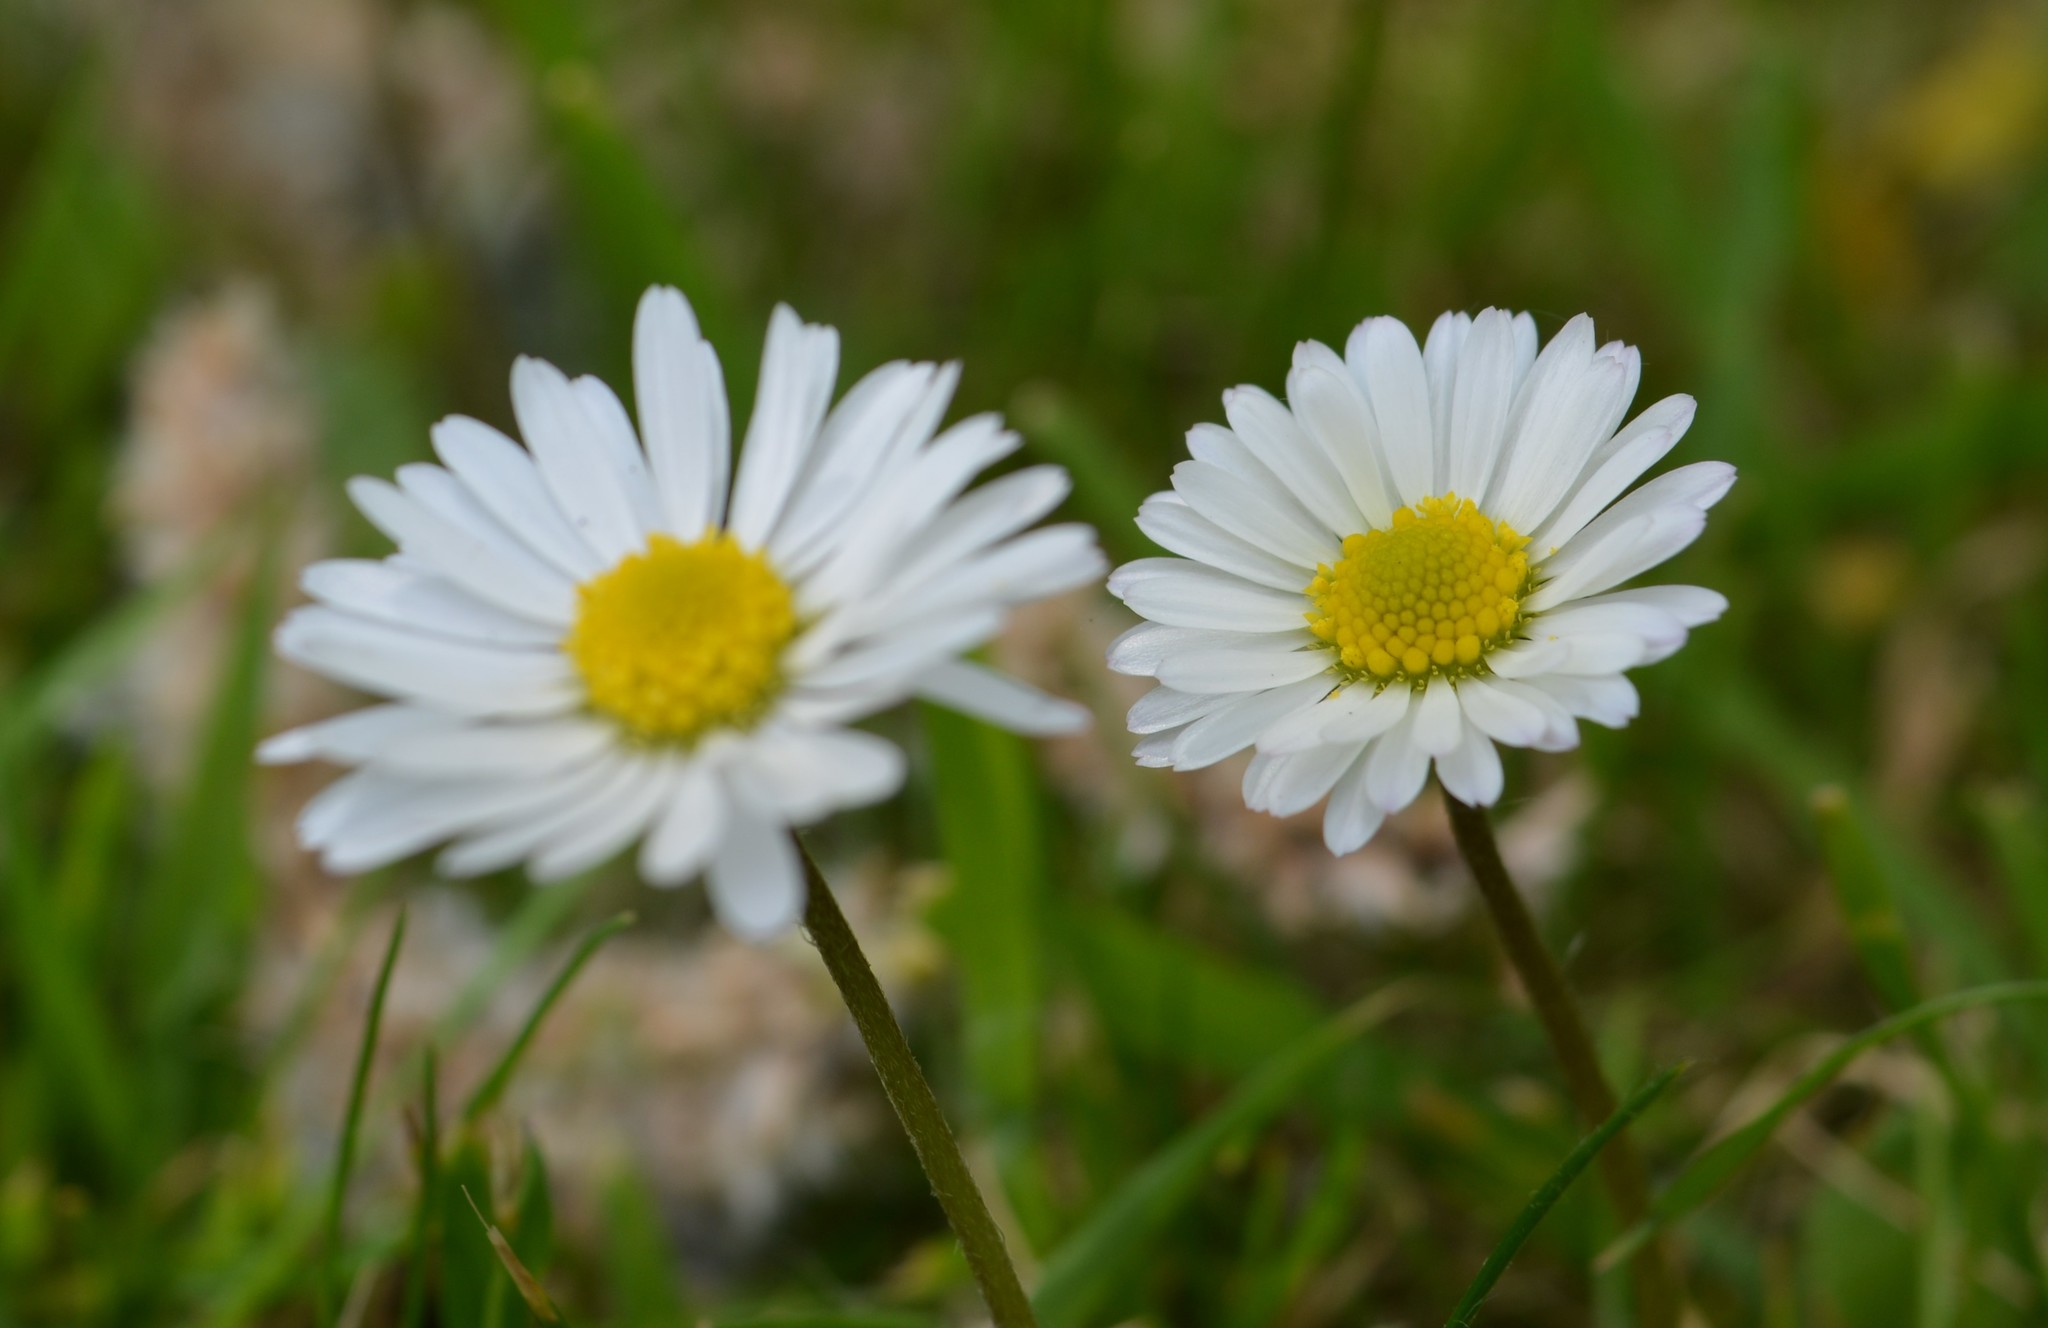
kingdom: Plantae
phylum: Tracheophyta
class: Magnoliopsida
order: Asterales
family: Asteraceae
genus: Bellis
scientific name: Bellis perennis
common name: Lawndaisy
